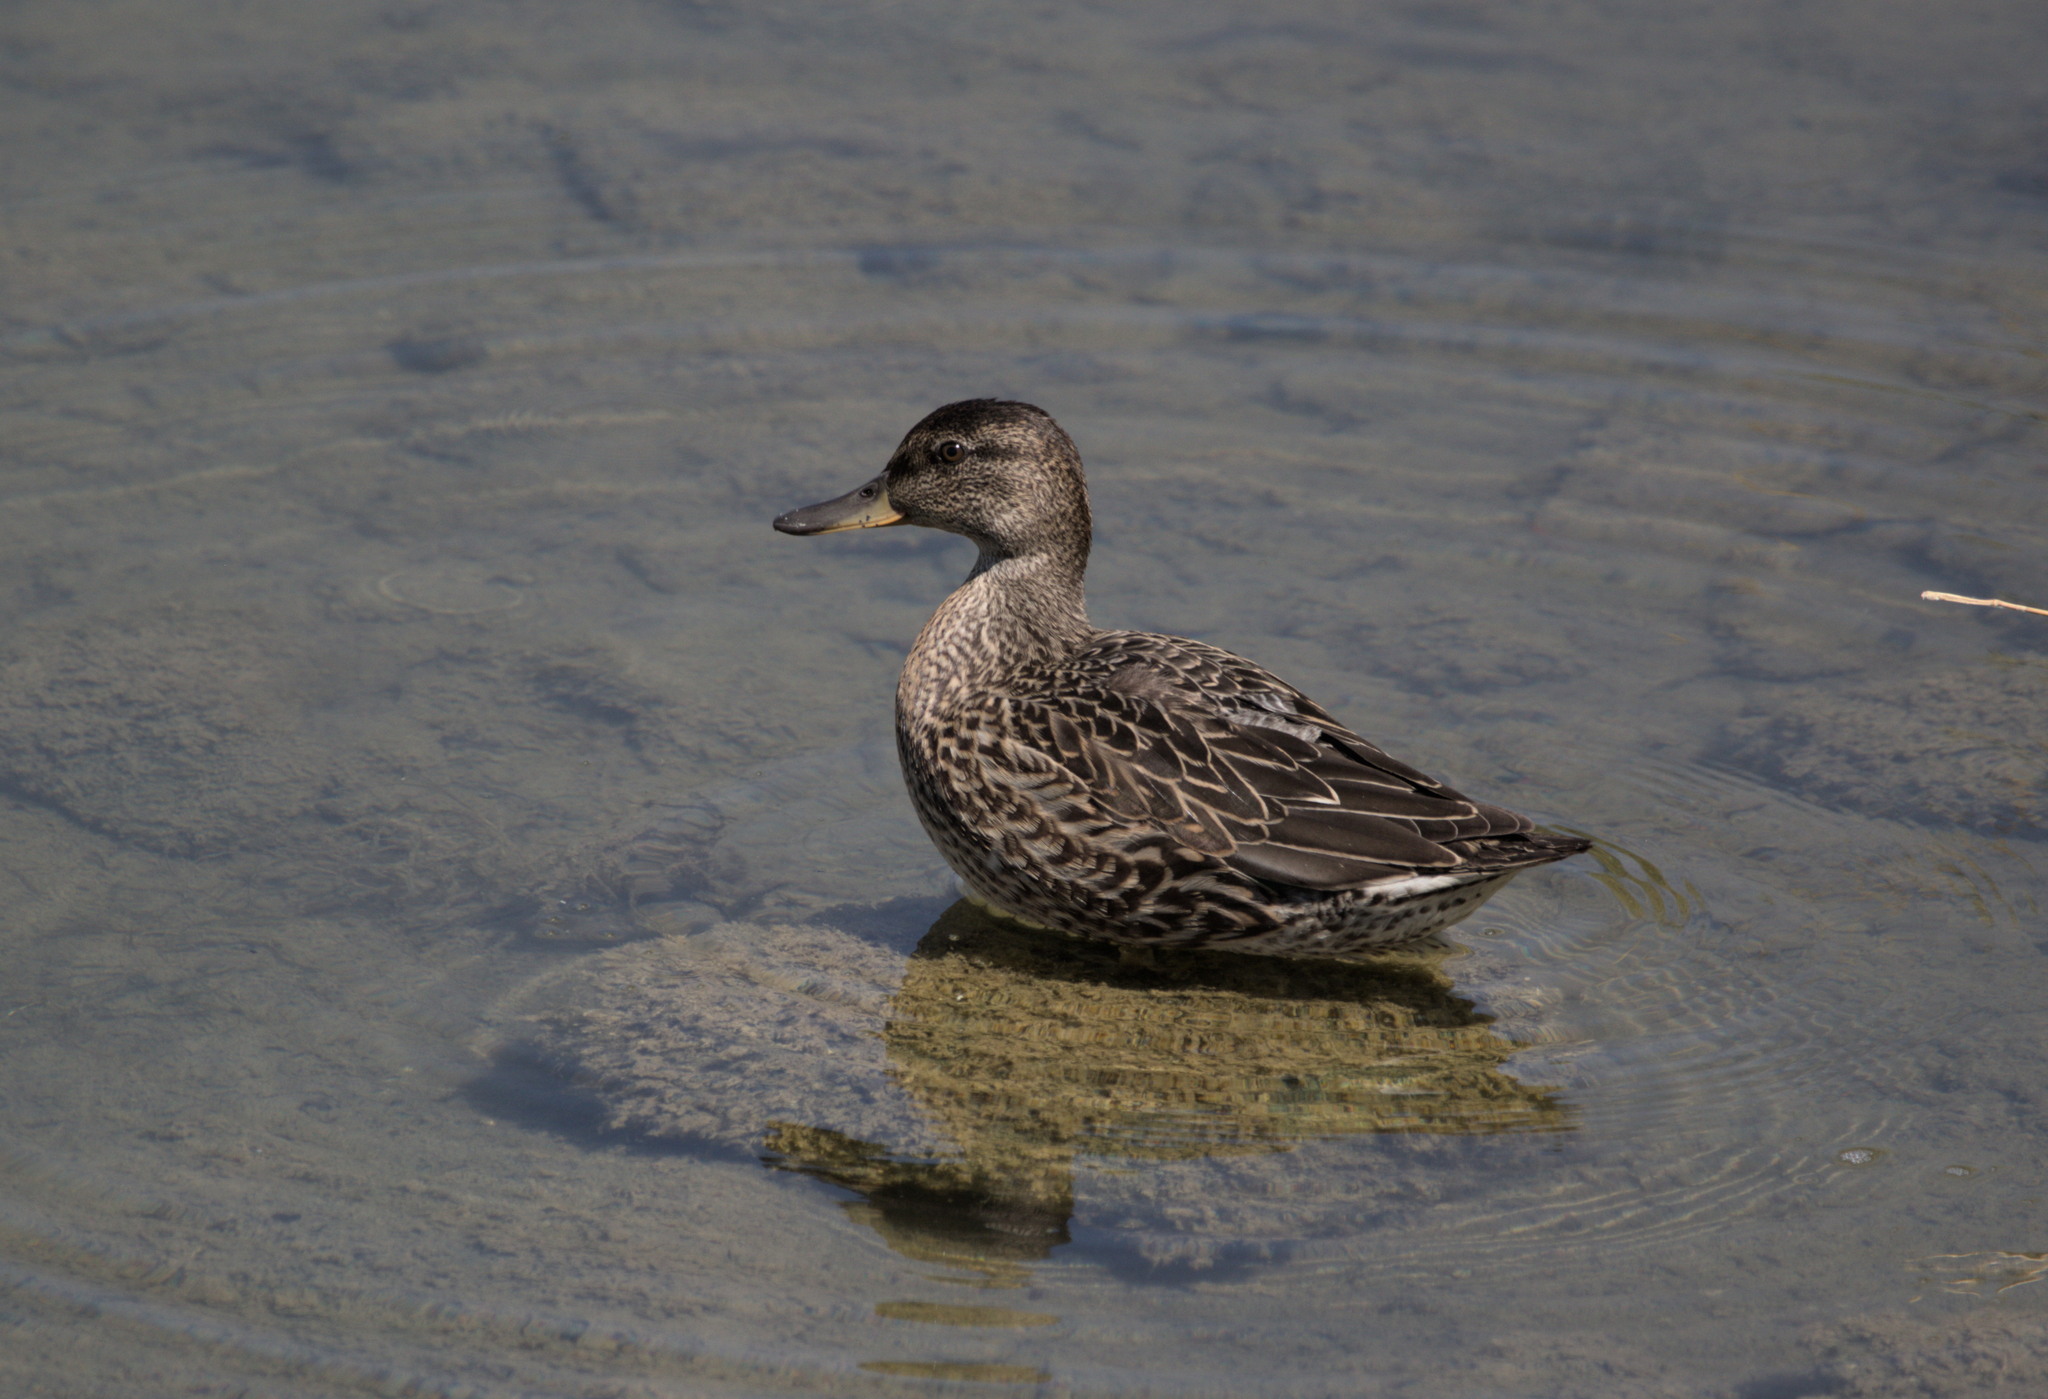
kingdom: Animalia
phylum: Chordata
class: Aves
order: Anseriformes
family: Anatidae
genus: Anas
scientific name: Anas crecca
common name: Eurasian teal
